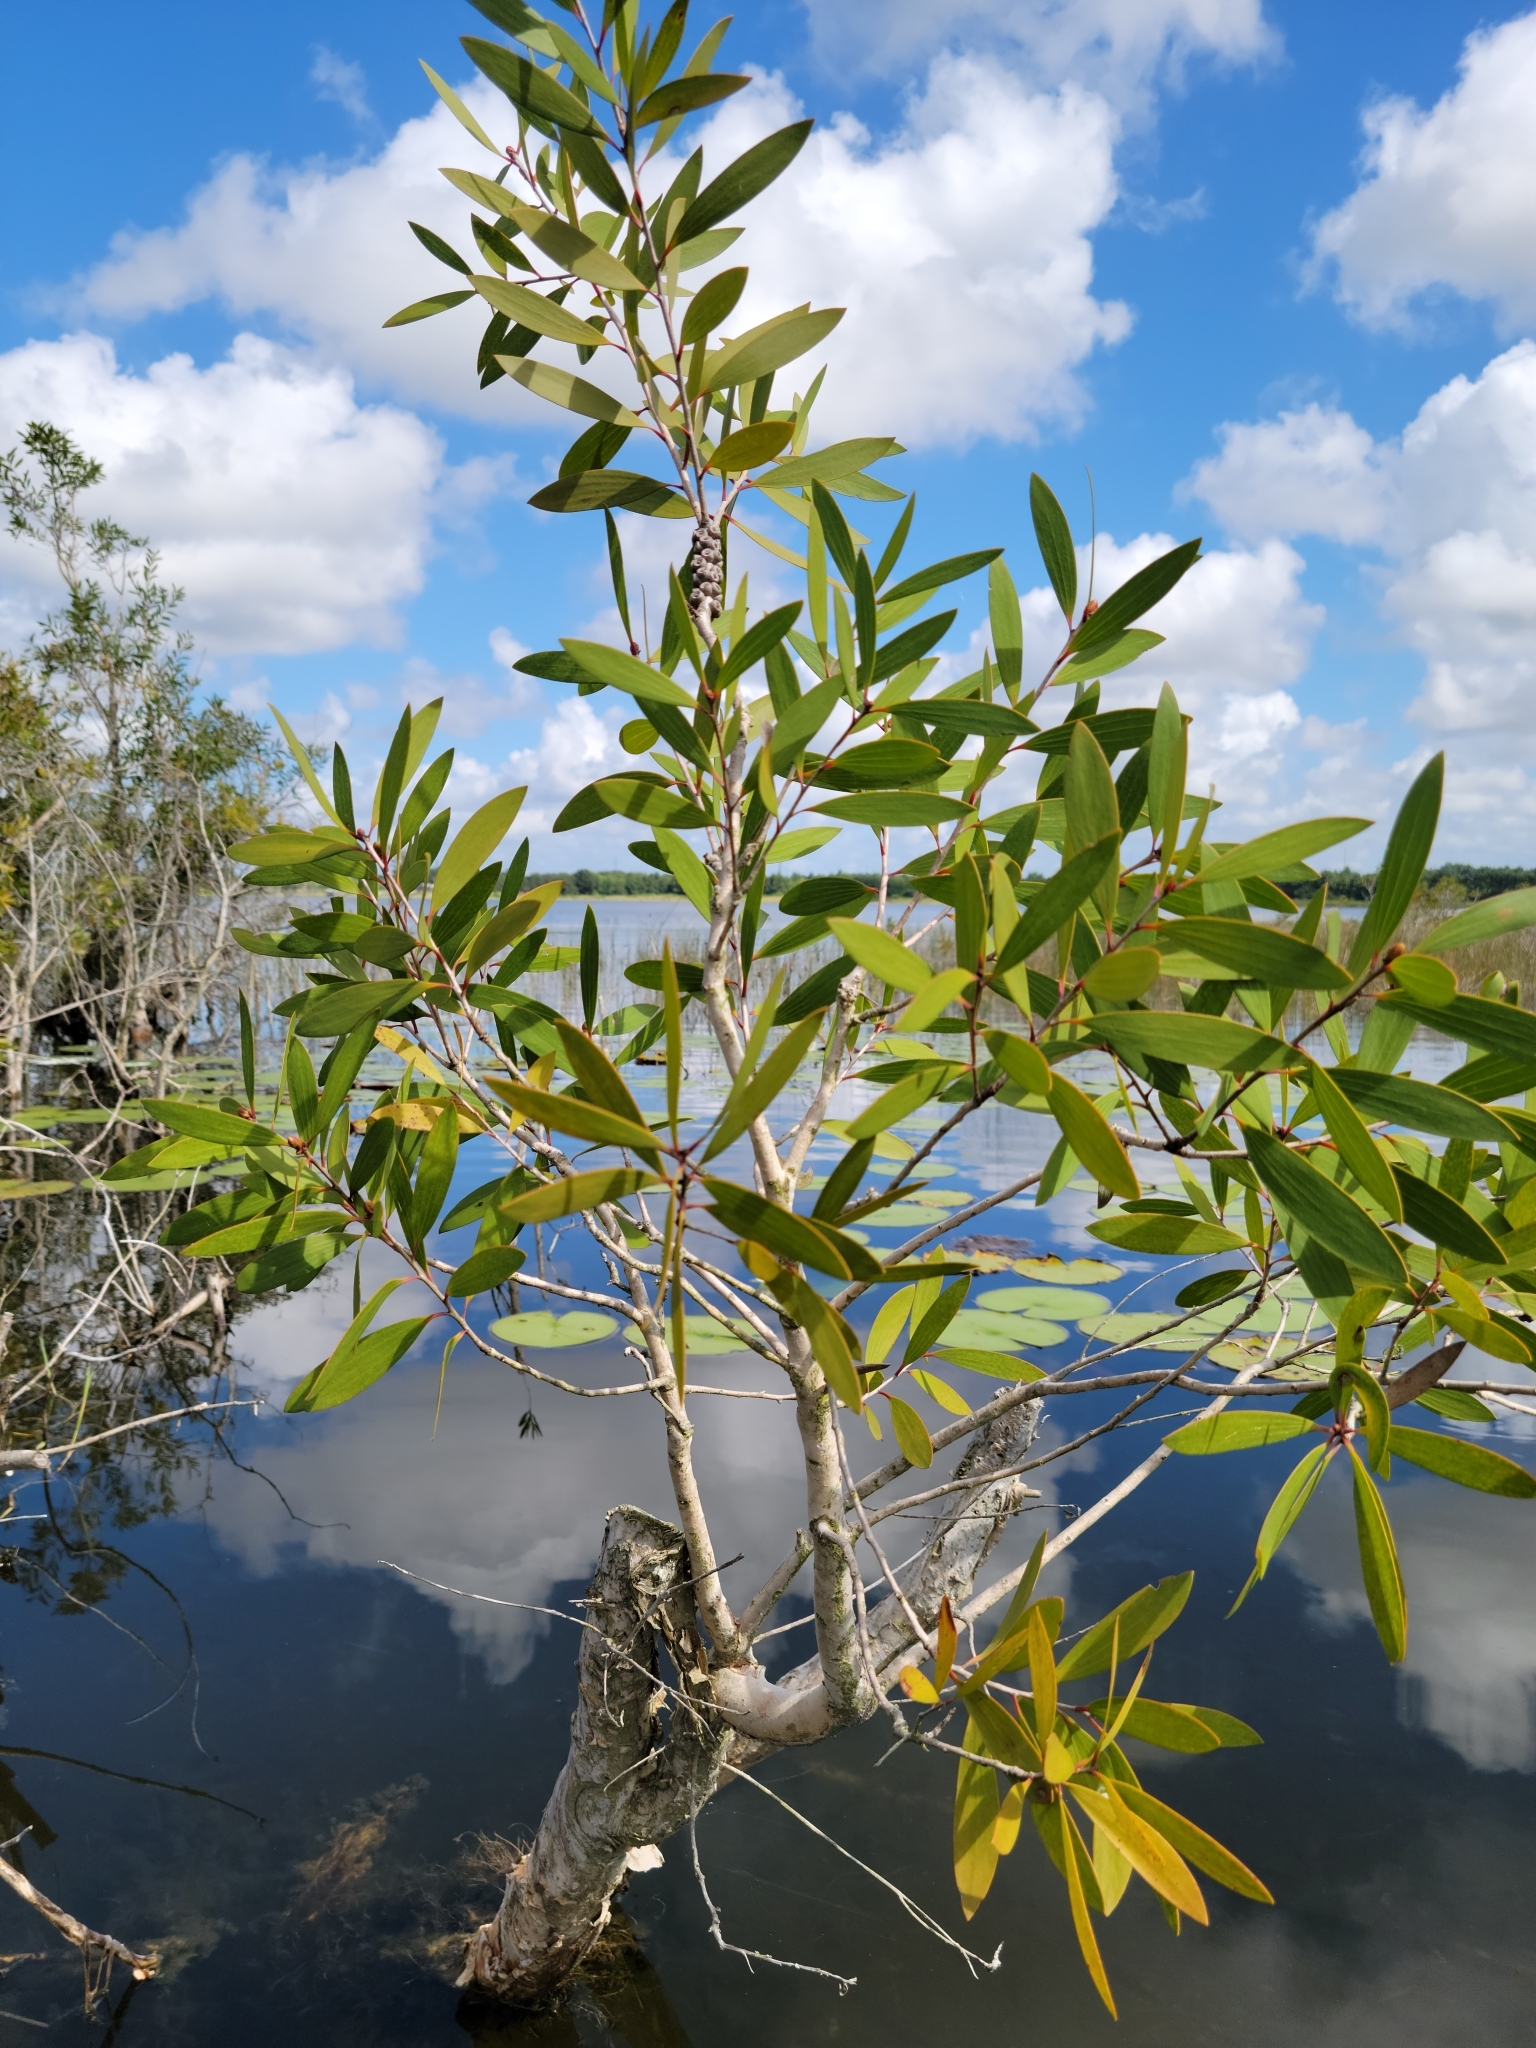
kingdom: Plantae
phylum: Tracheophyta
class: Magnoliopsida
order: Myrtales
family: Myrtaceae
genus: Melaleuca
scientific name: Melaleuca quinquenervia
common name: Punktree
